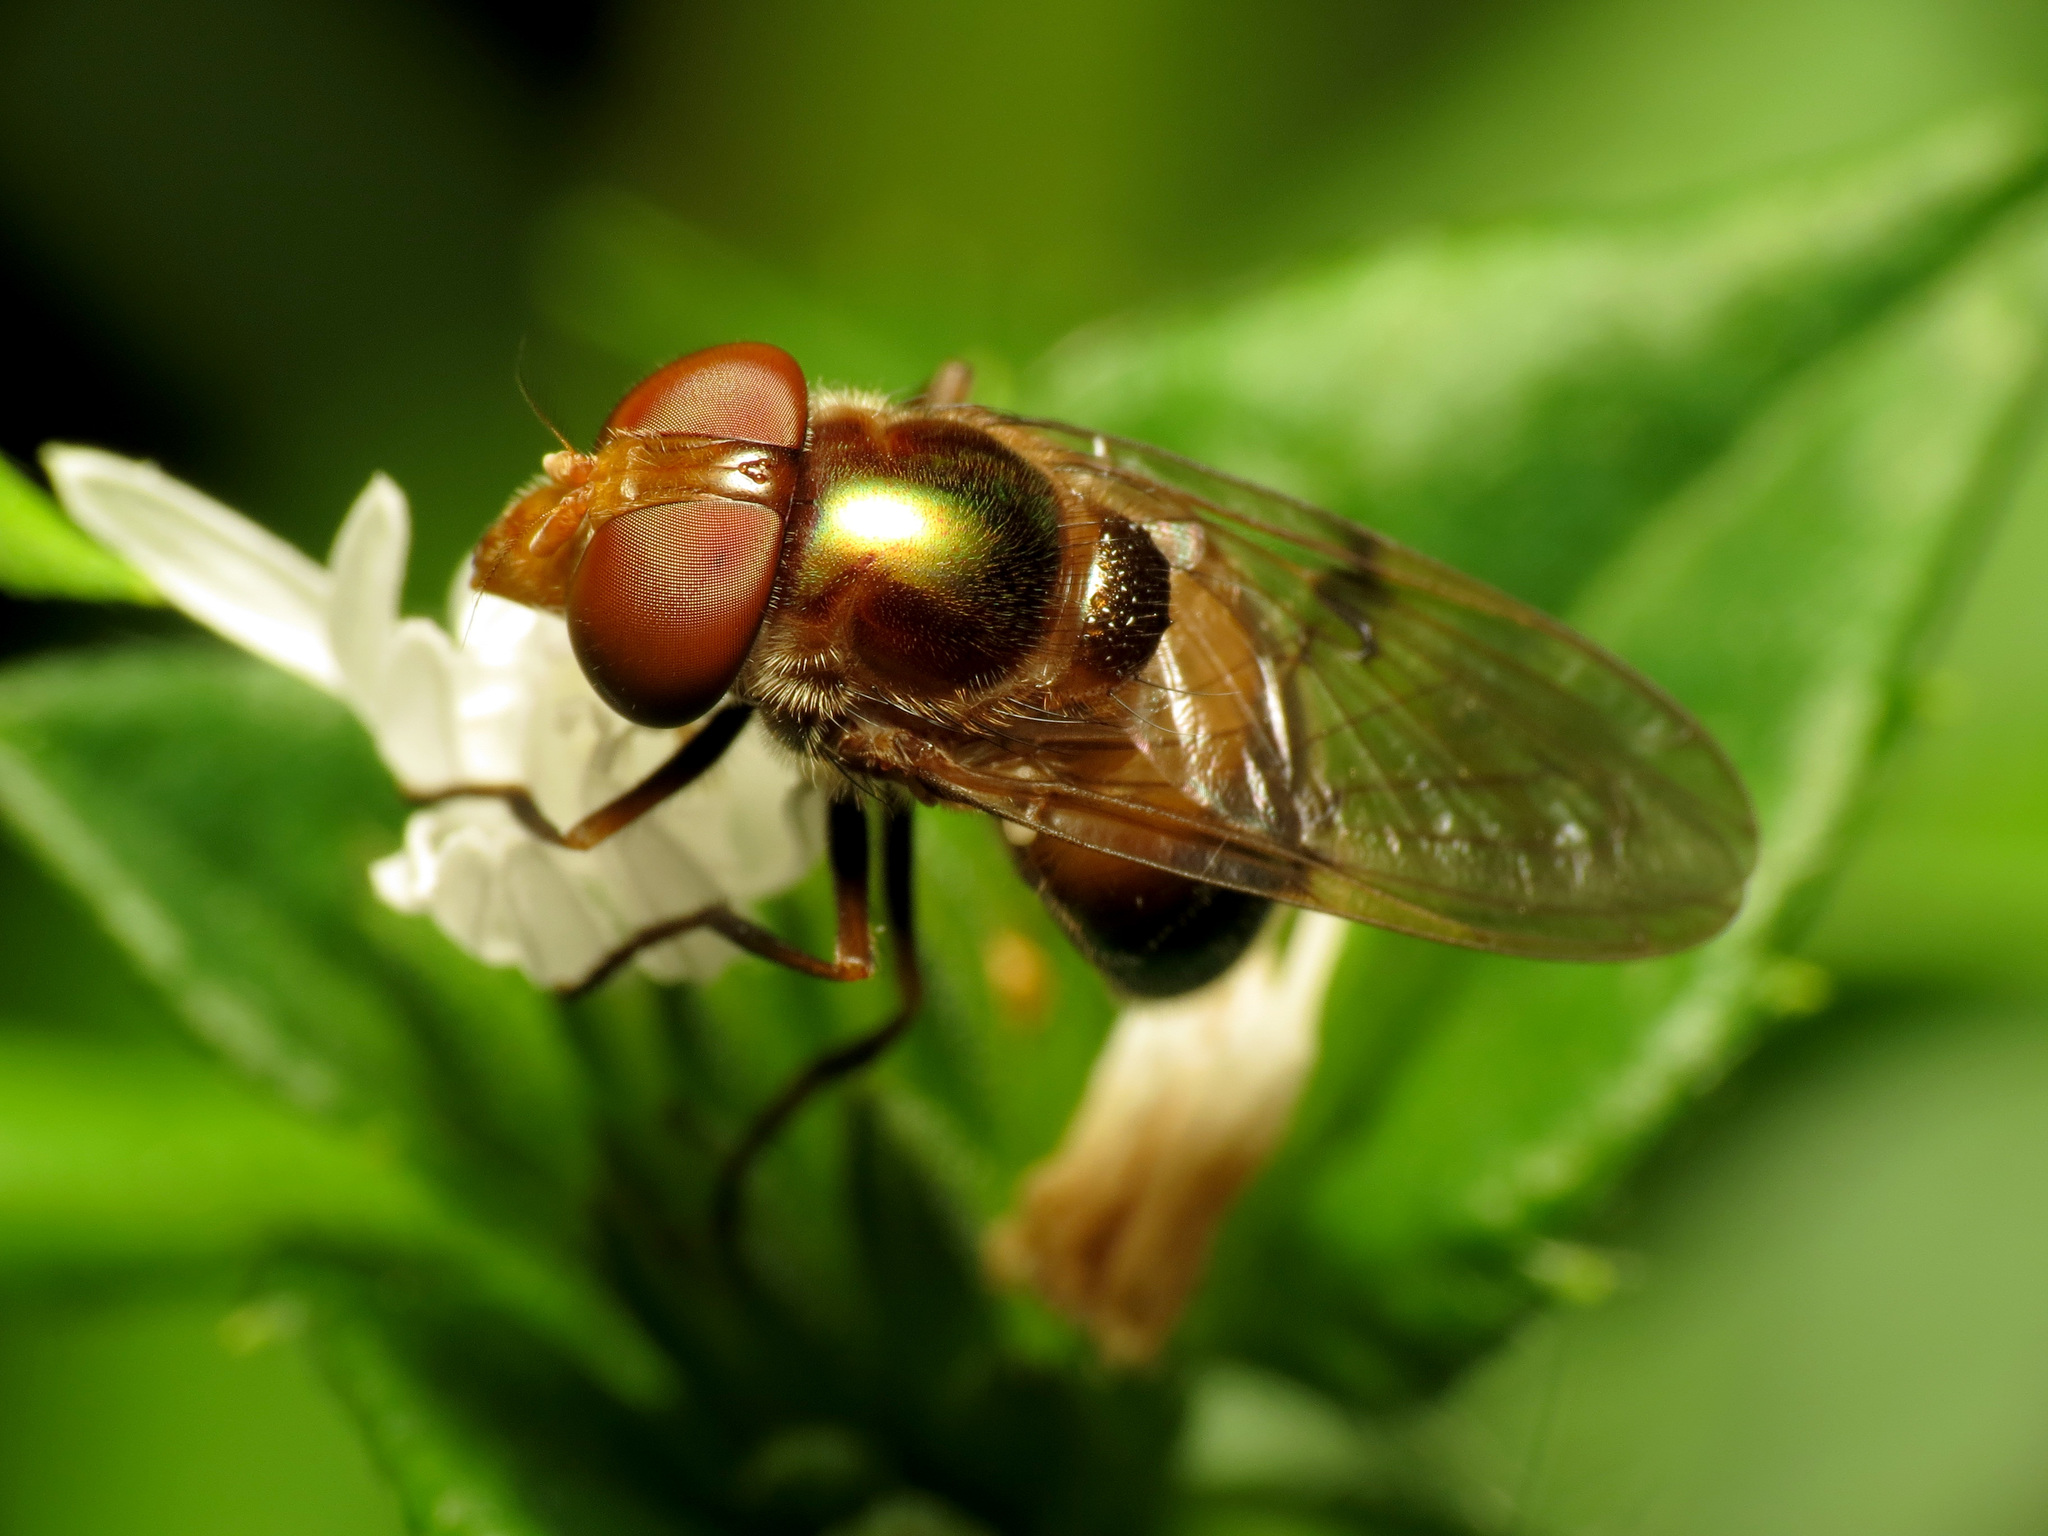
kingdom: Animalia
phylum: Arthropoda
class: Insecta
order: Diptera
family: Syrphidae
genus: Copestylum
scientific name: Copestylum vesicularium
